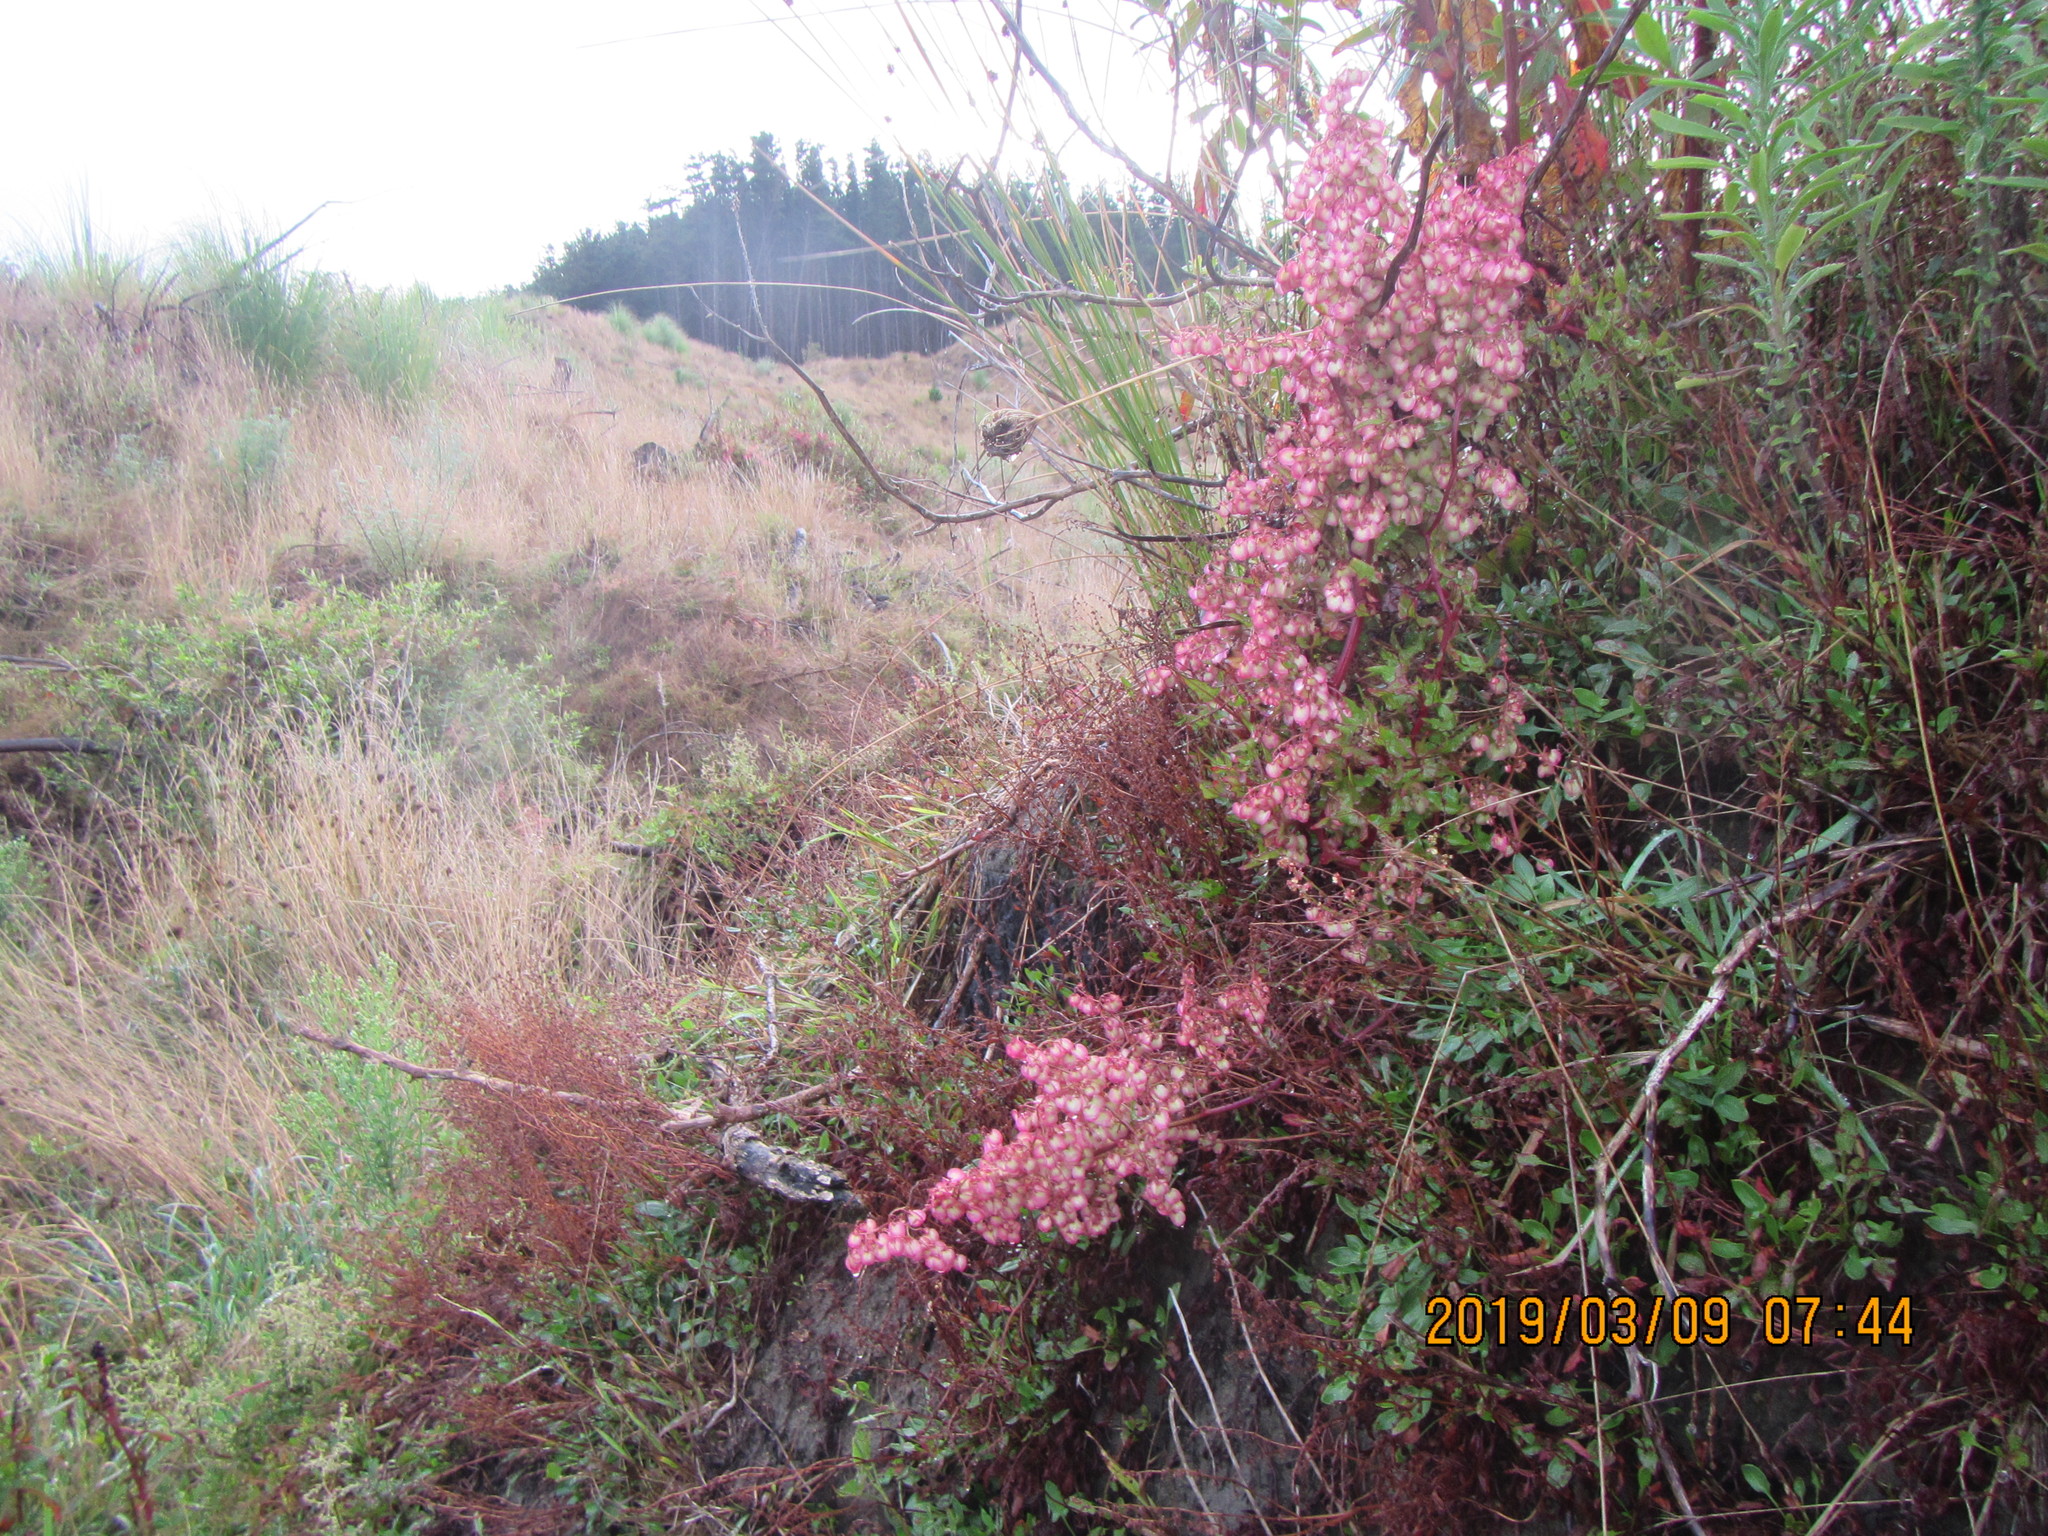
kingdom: Plantae
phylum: Tracheophyta
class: Magnoliopsida
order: Caryophyllales
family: Polygonaceae
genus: Rumex
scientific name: Rumex sagittatus
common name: Climbing dock
